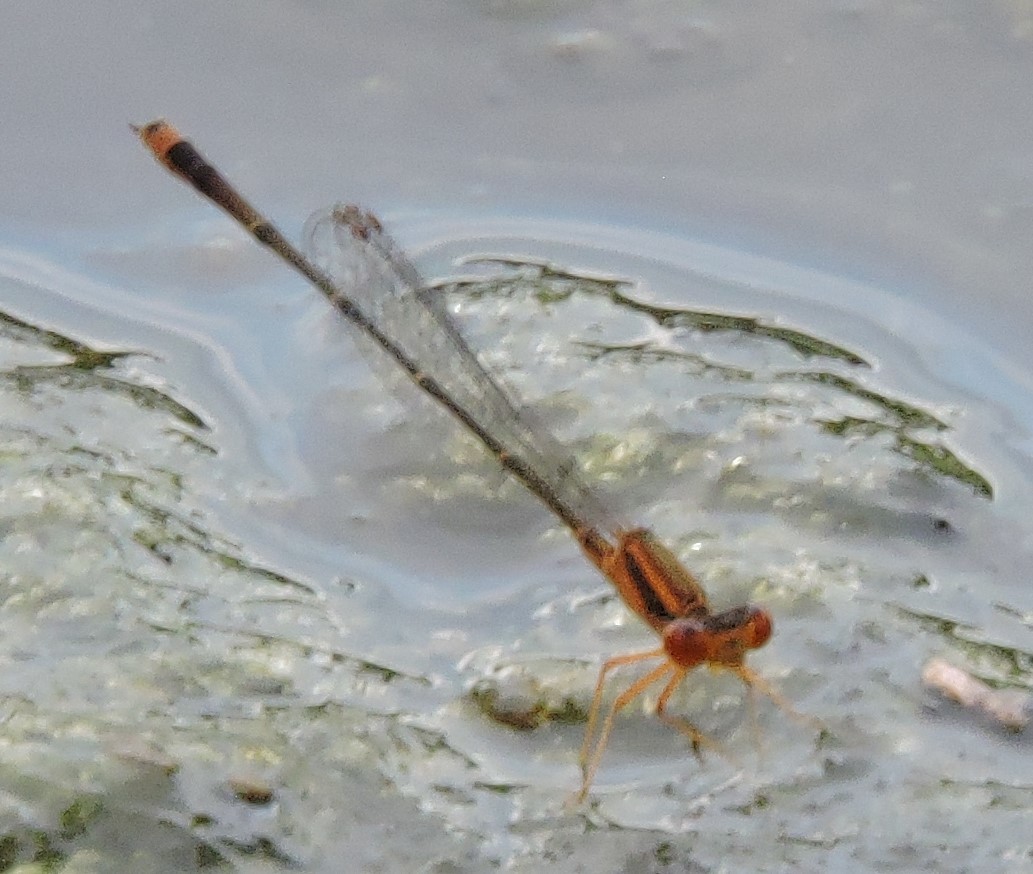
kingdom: Animalia
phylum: Arthropoda
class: Insecta
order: Odonata
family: Coenagrionidae
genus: Enallagma
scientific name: Enallagma signatum
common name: Orange bluet
